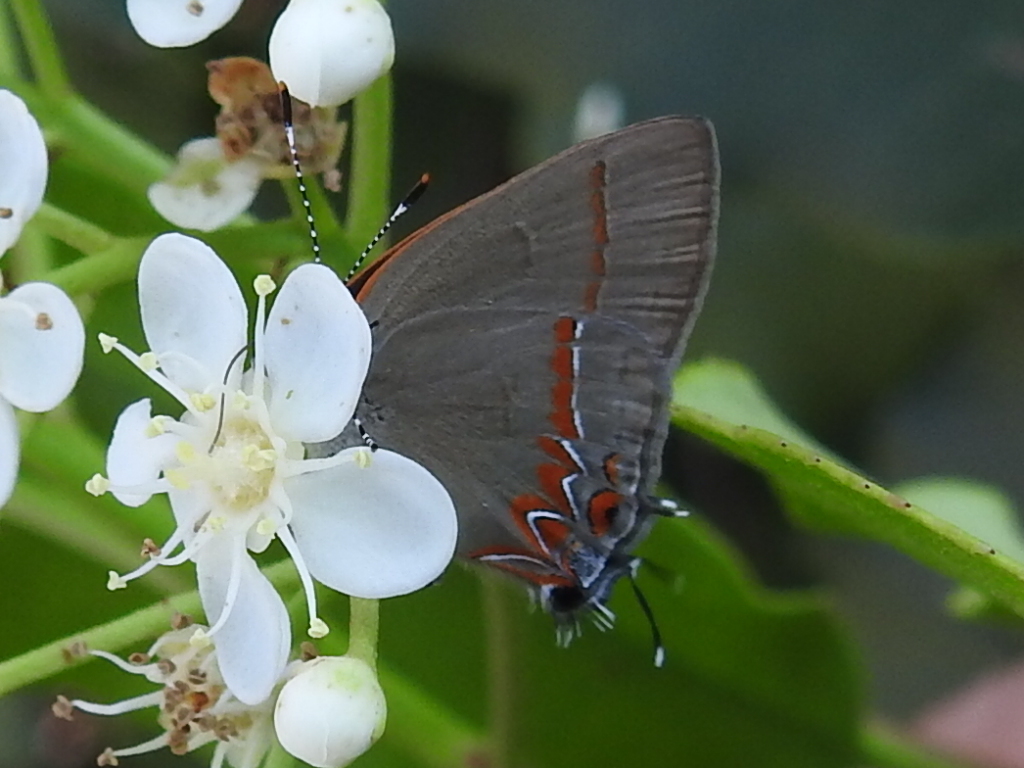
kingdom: Animalia
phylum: Arthropoda
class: Insecta
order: Lepidoptera
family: Lycaenidae
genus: Calycopis
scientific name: Calycopis isobeon
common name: Dusky-blue groundstreak
